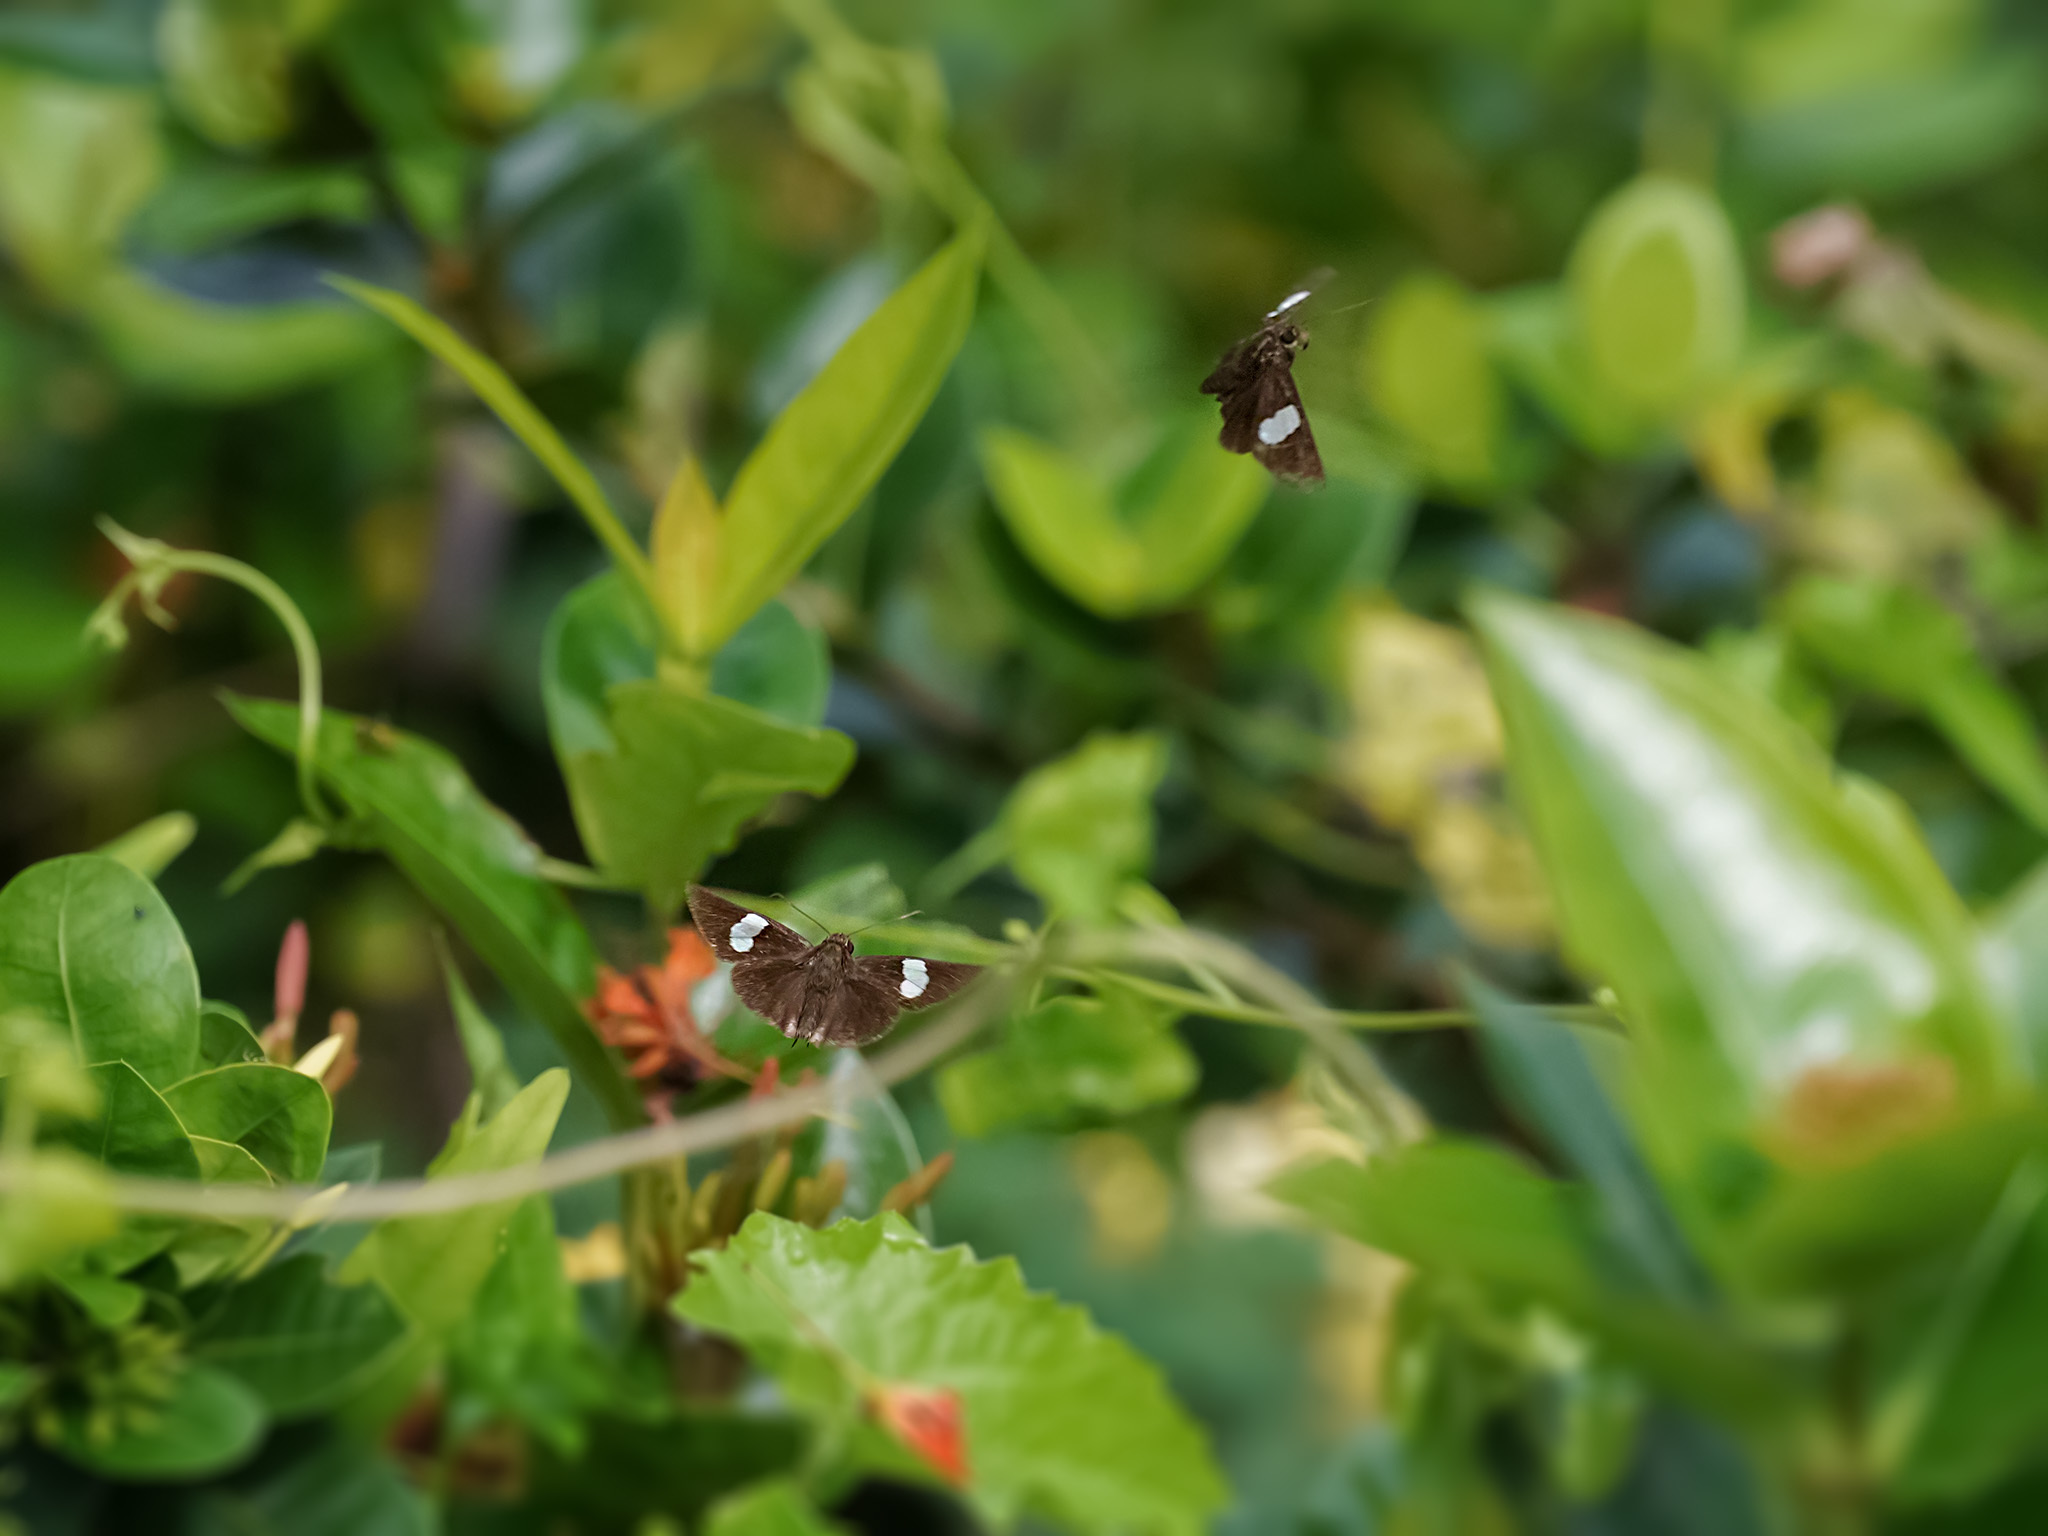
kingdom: Animalia
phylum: Arthropoda
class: Insecta
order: Lepidoptera
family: Hesperiidae
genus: Notocrypta
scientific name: Notocrypta paralysos
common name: Common banded demon
